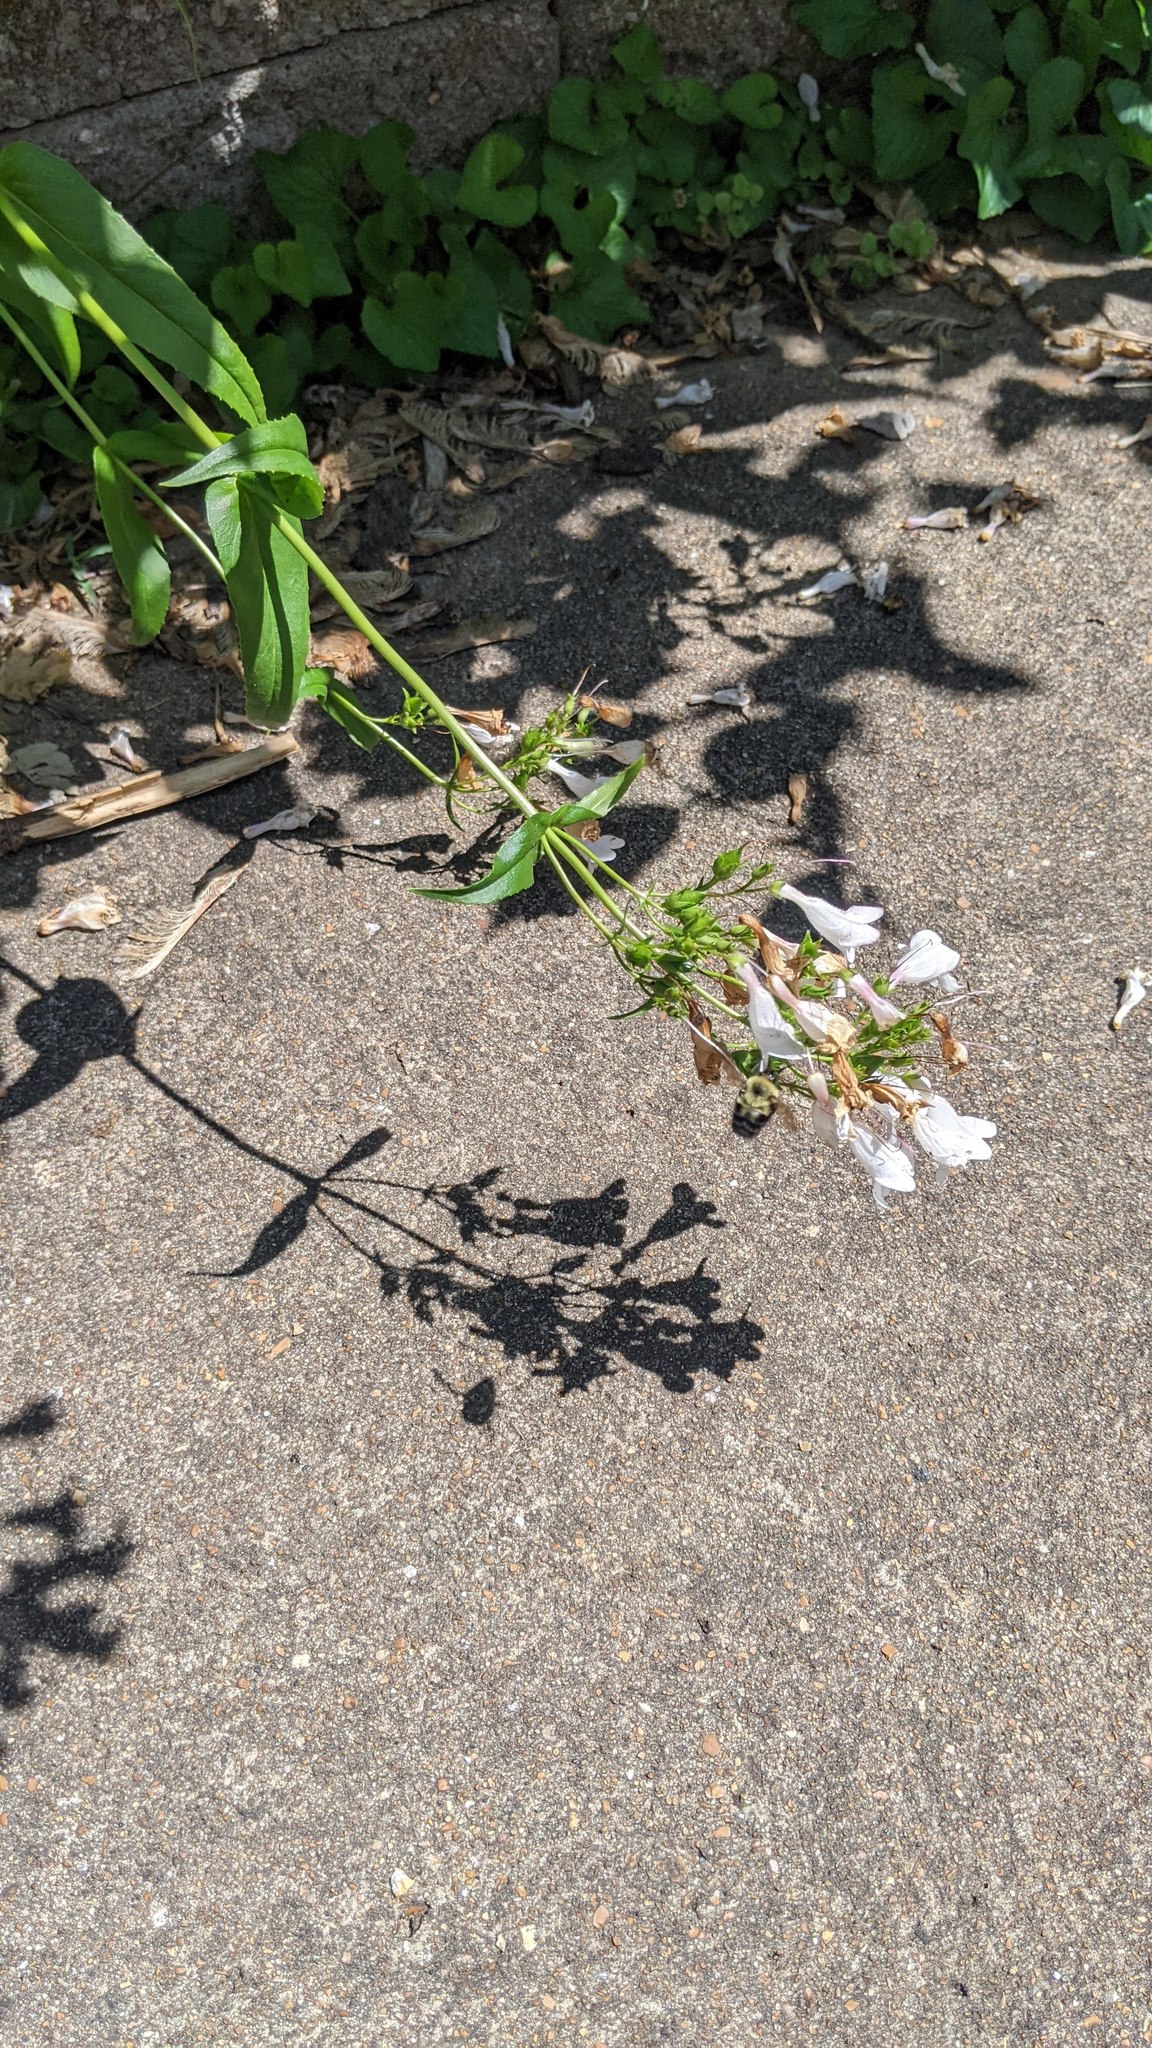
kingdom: Animalia
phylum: Arthropoda
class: Insecta
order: Hymenoptera
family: Apidae
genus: Bombus
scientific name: Bombus bimaculatus
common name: Two-spotted bumble bee
